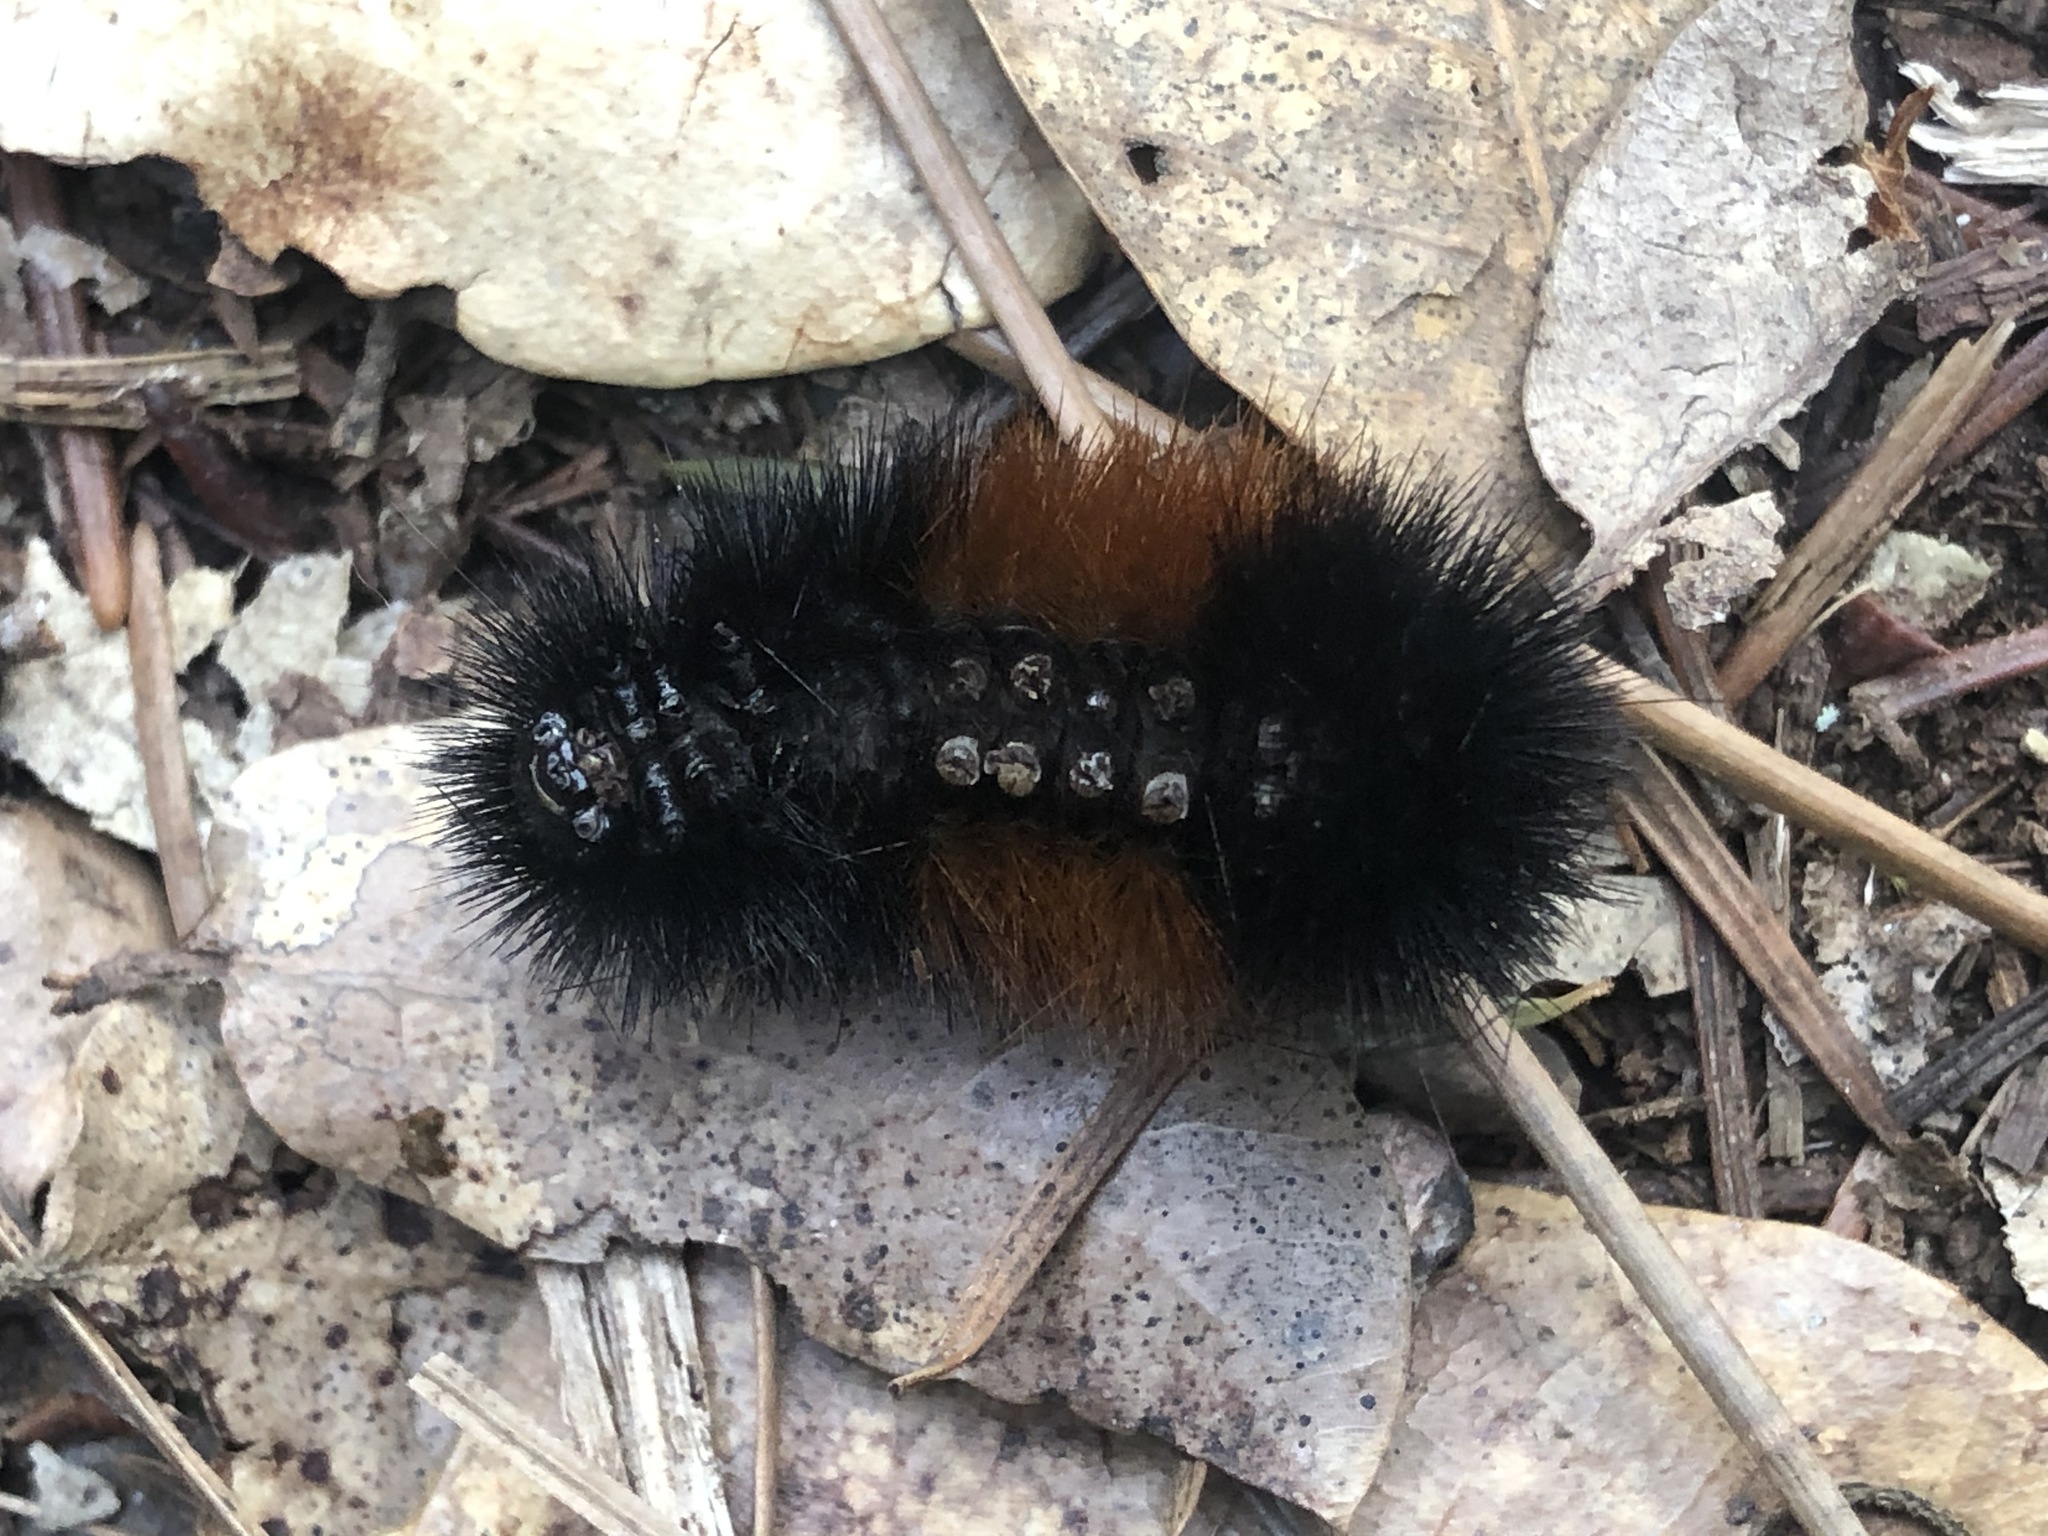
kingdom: Animalia
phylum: Arthropoda
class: Insecta
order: Lepidoptera
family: Erebidae
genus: Pyrrharctia
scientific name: Pyrrharctia isabella
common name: Isabella tiger moth
